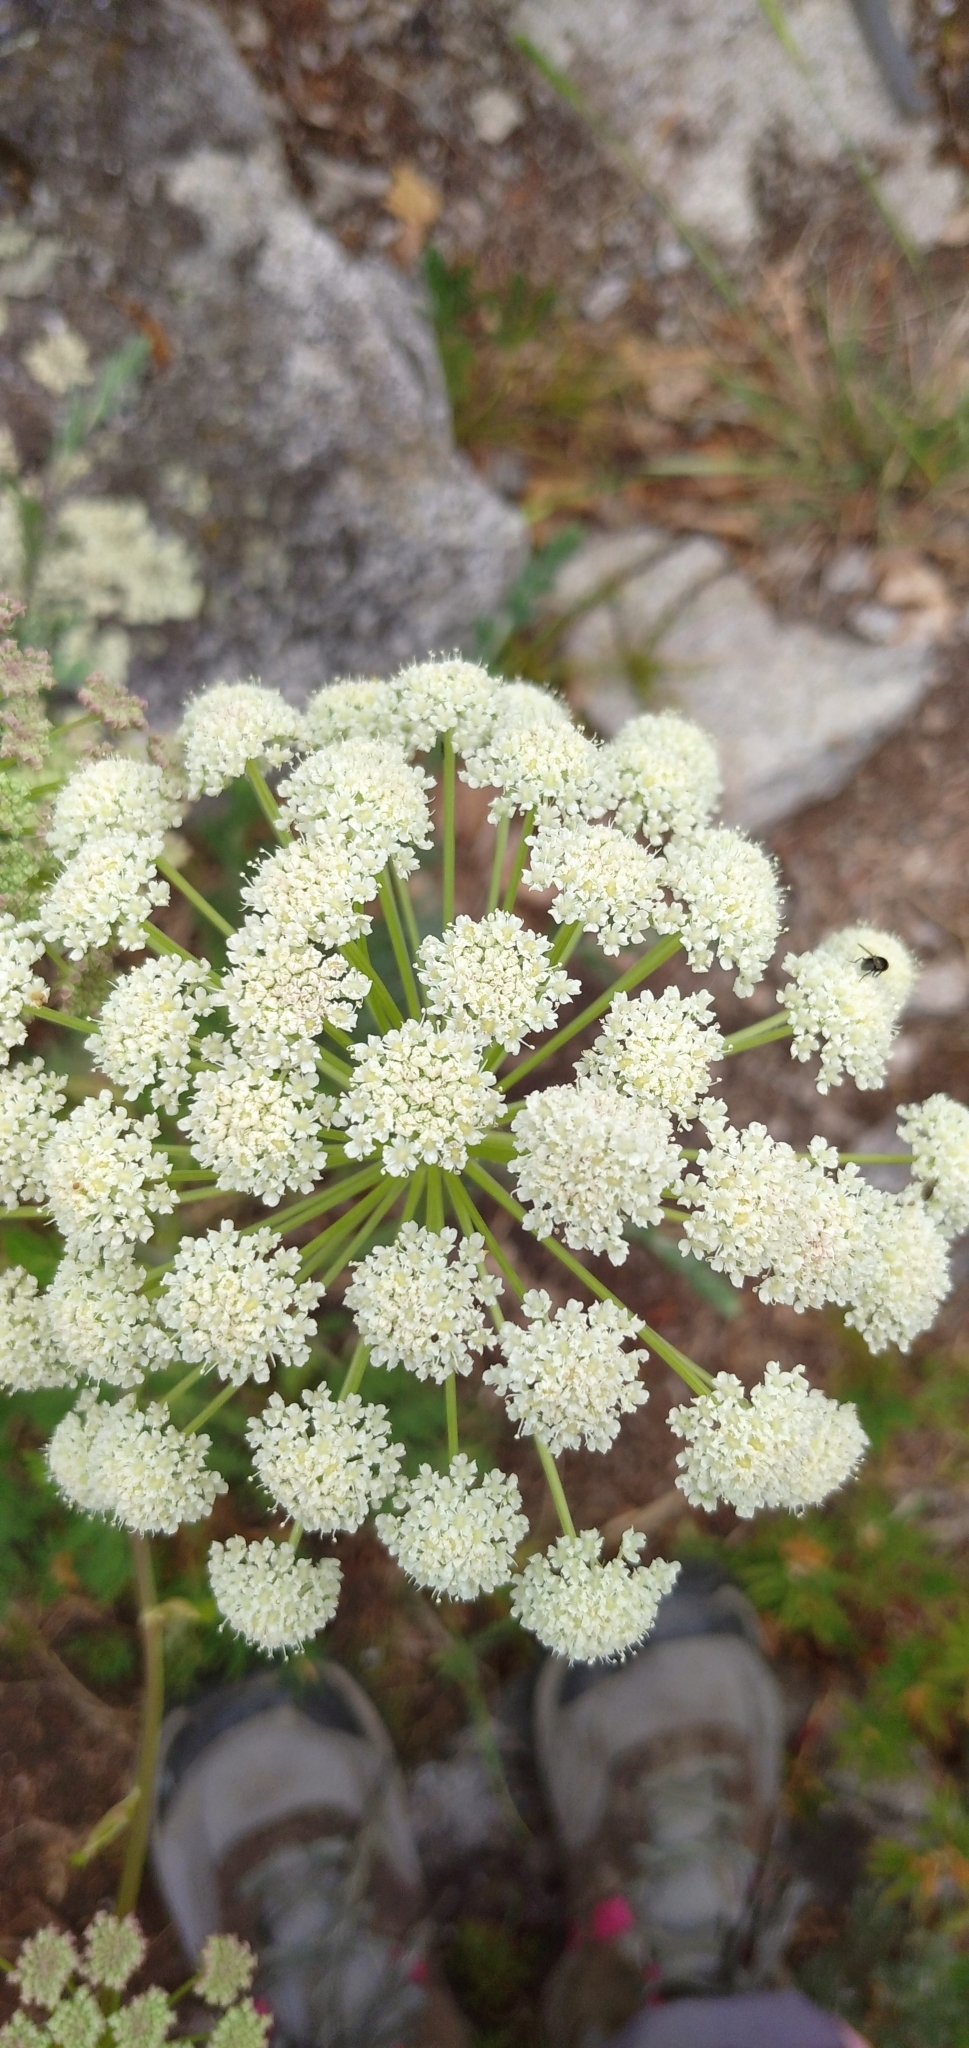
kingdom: Plantae
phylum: Tracheophyta
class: Magnoliopsida
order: Apiales
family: Apiaceae
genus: Seseli
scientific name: Seseli libanotis
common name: Mooncarrot
